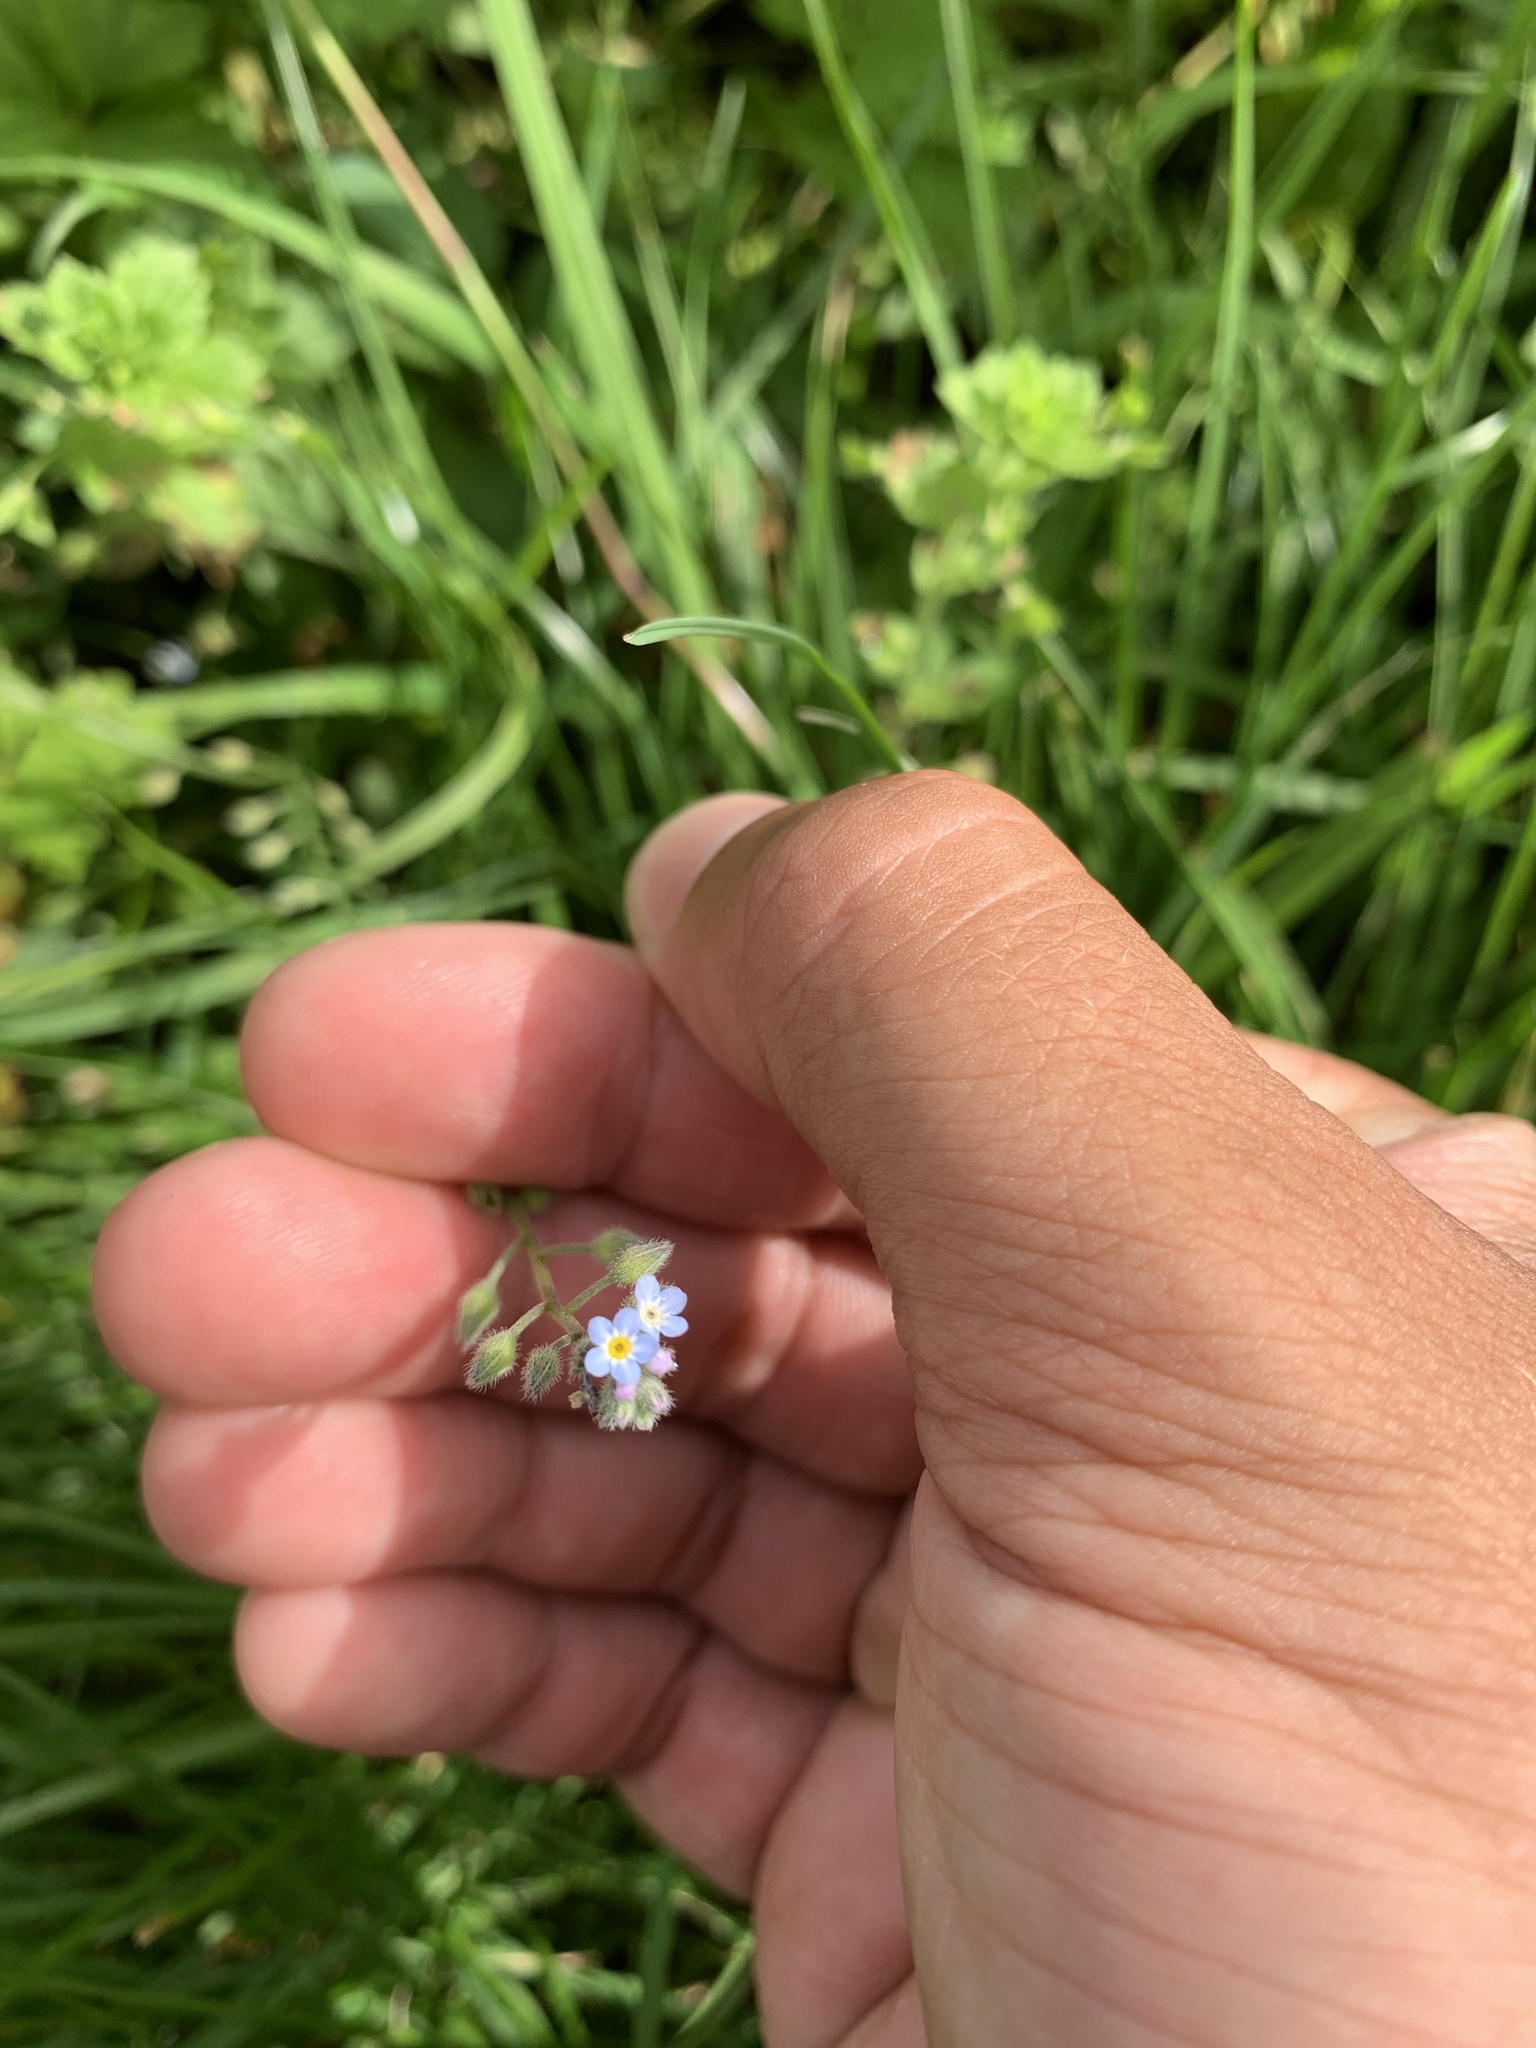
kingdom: Plantae
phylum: Tracheophyta
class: Magnoliopsida
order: Boraginales
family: Boraginaceae
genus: Myosotis
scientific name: Myosotis arvensis
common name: Field forget-me-not
